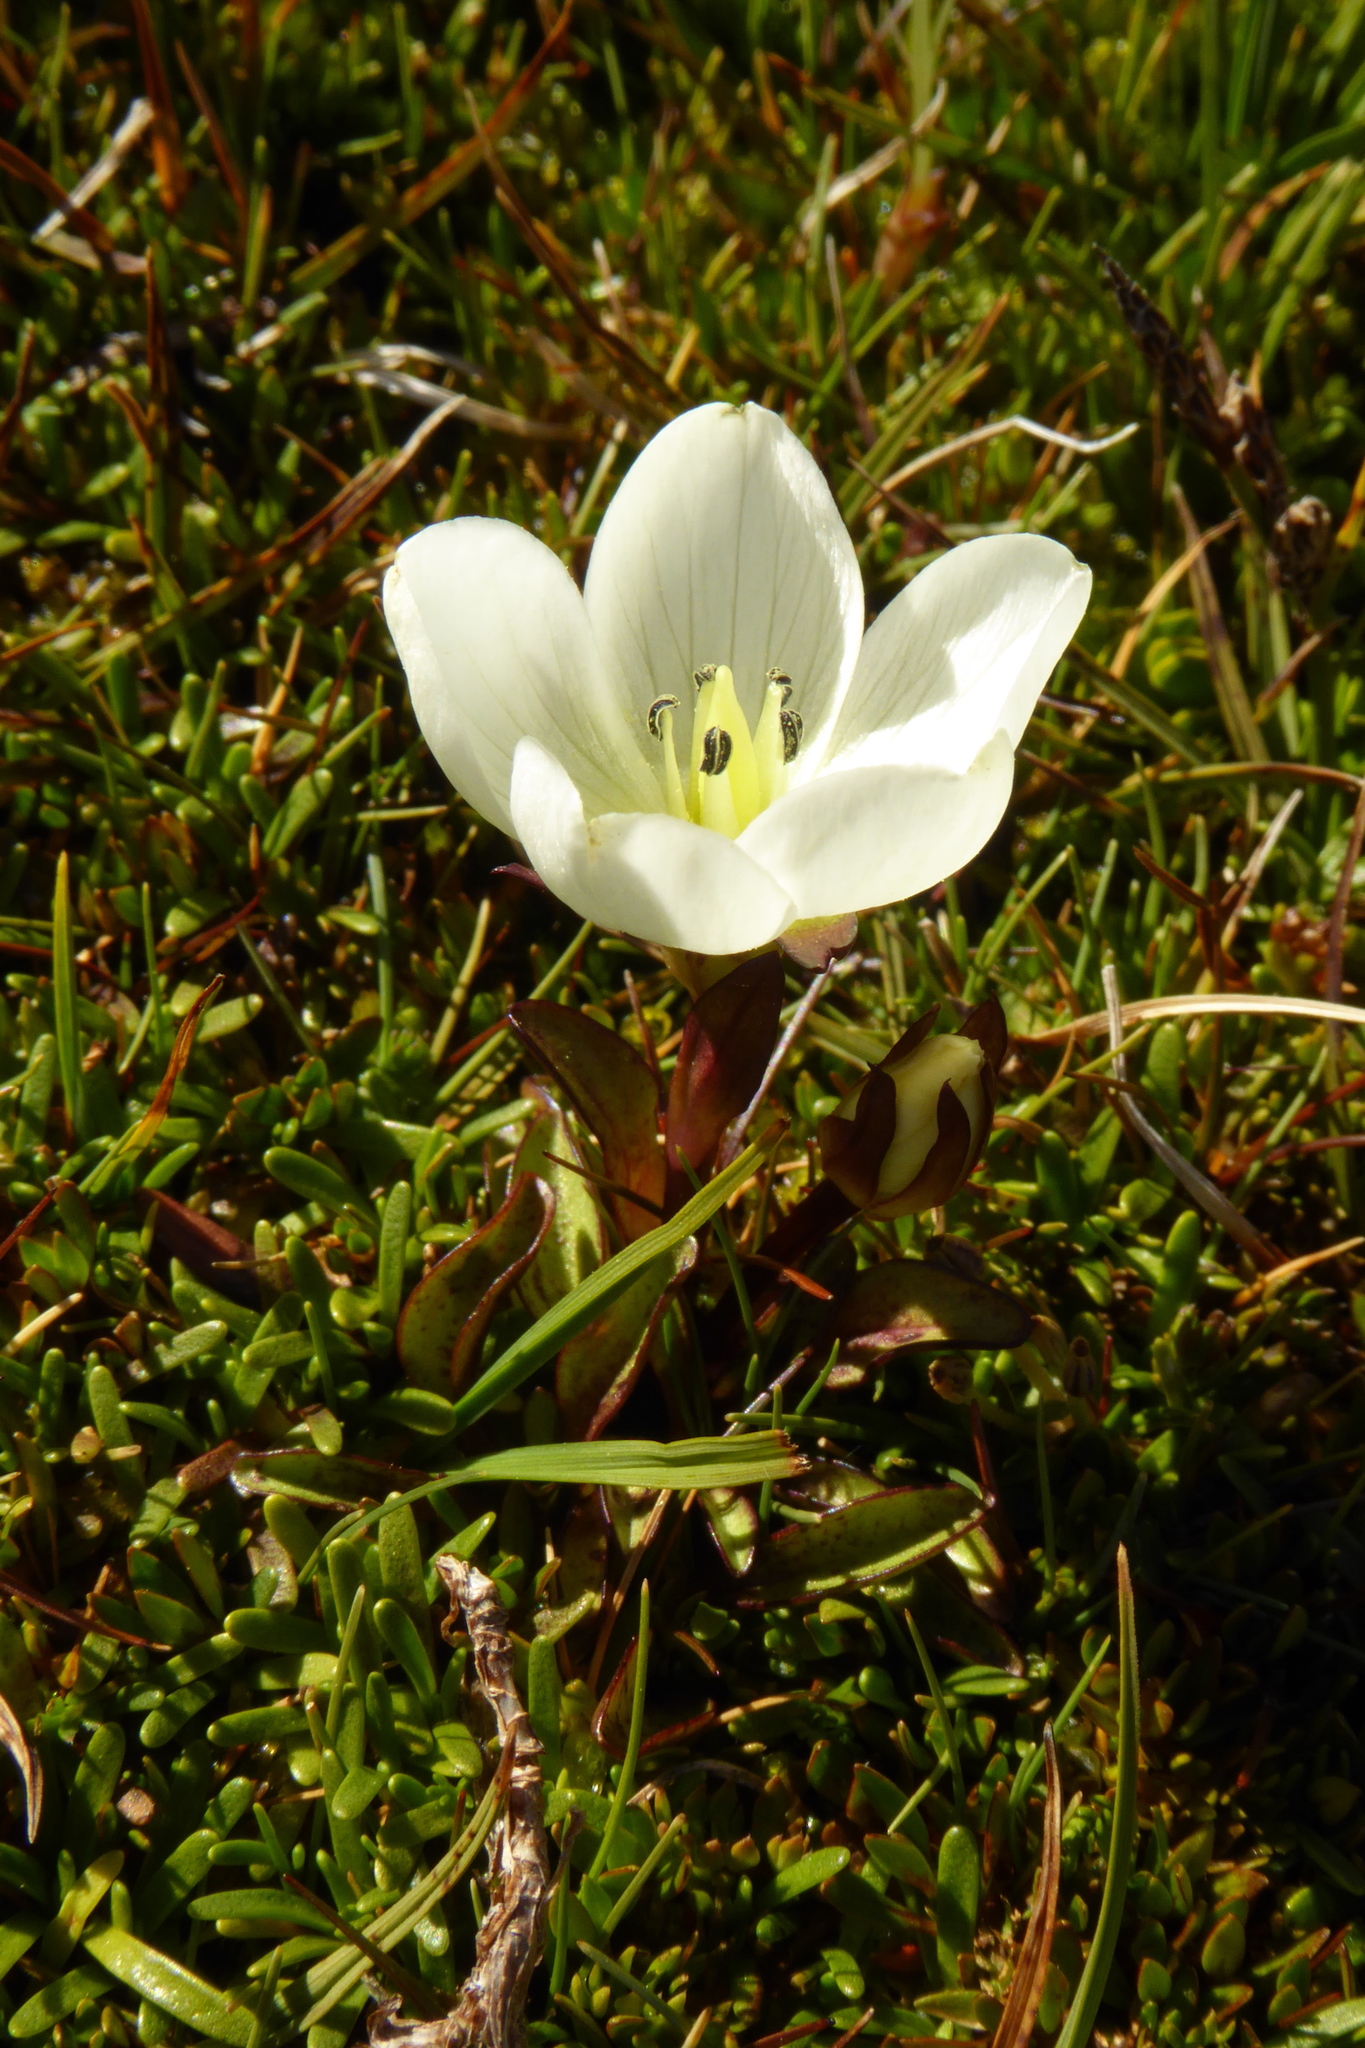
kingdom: Plantae
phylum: Tracheophyta
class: Magnoliopsida
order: Gentianales
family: Gentianaceae
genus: Gentianella
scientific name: Gentianella amabilis
